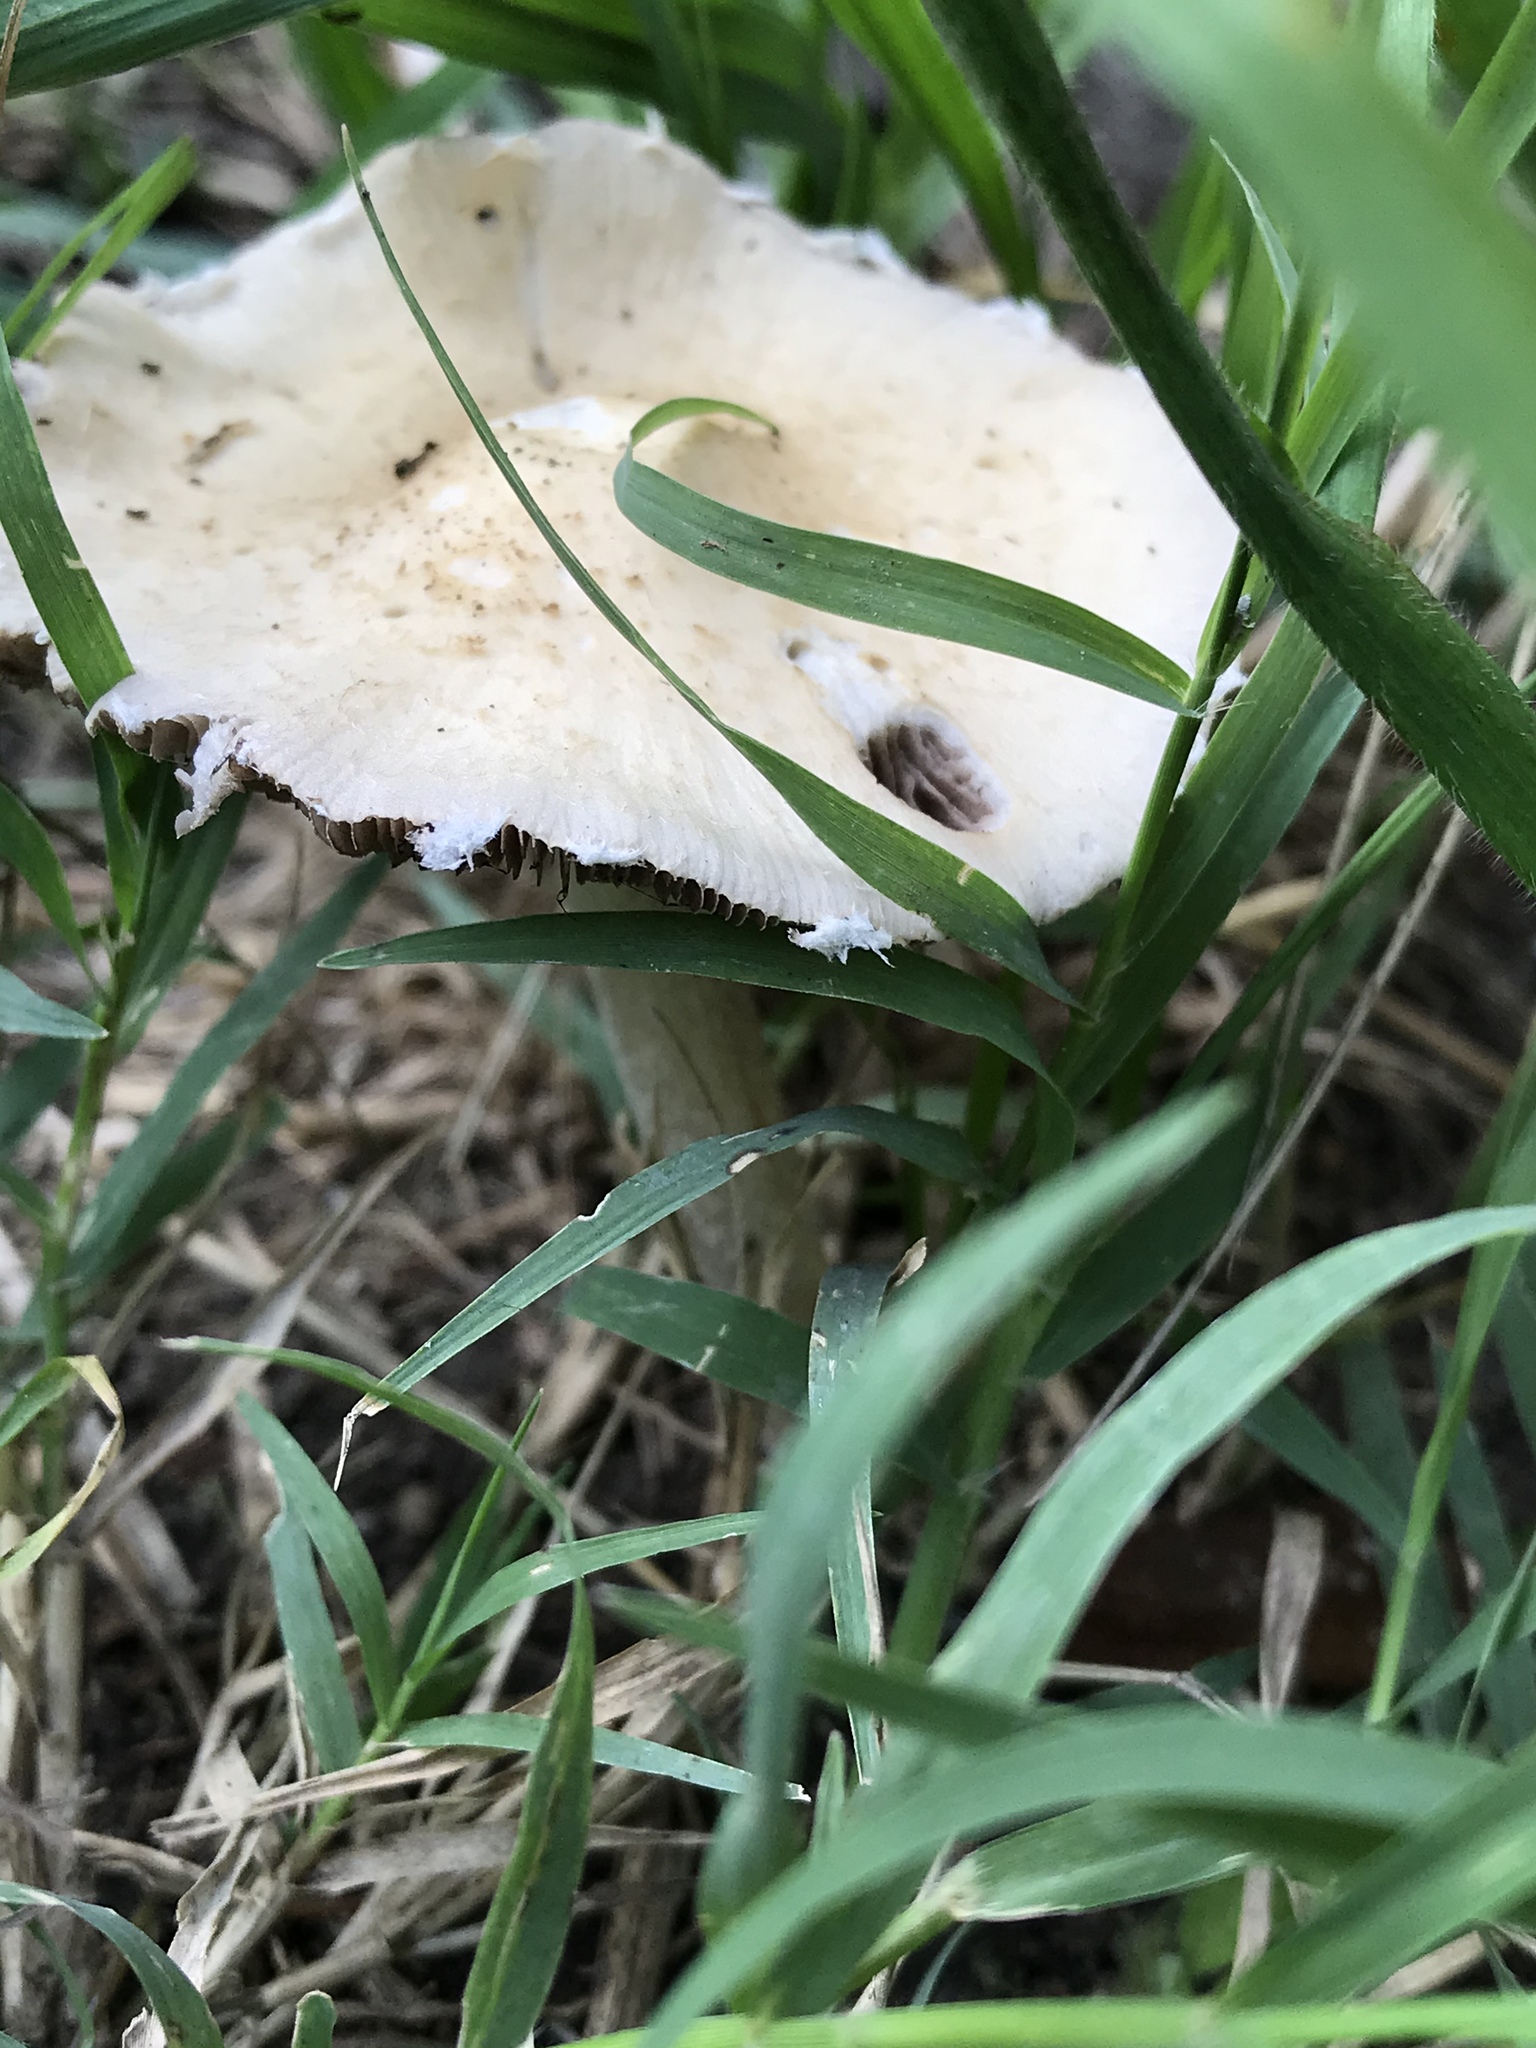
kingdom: Fungi
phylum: Basidiomycota
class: Agaricomycetes
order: Agaricales
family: Psathyrellaceae
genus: Candolleomyces
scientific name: Candolleomyces candolleanus
